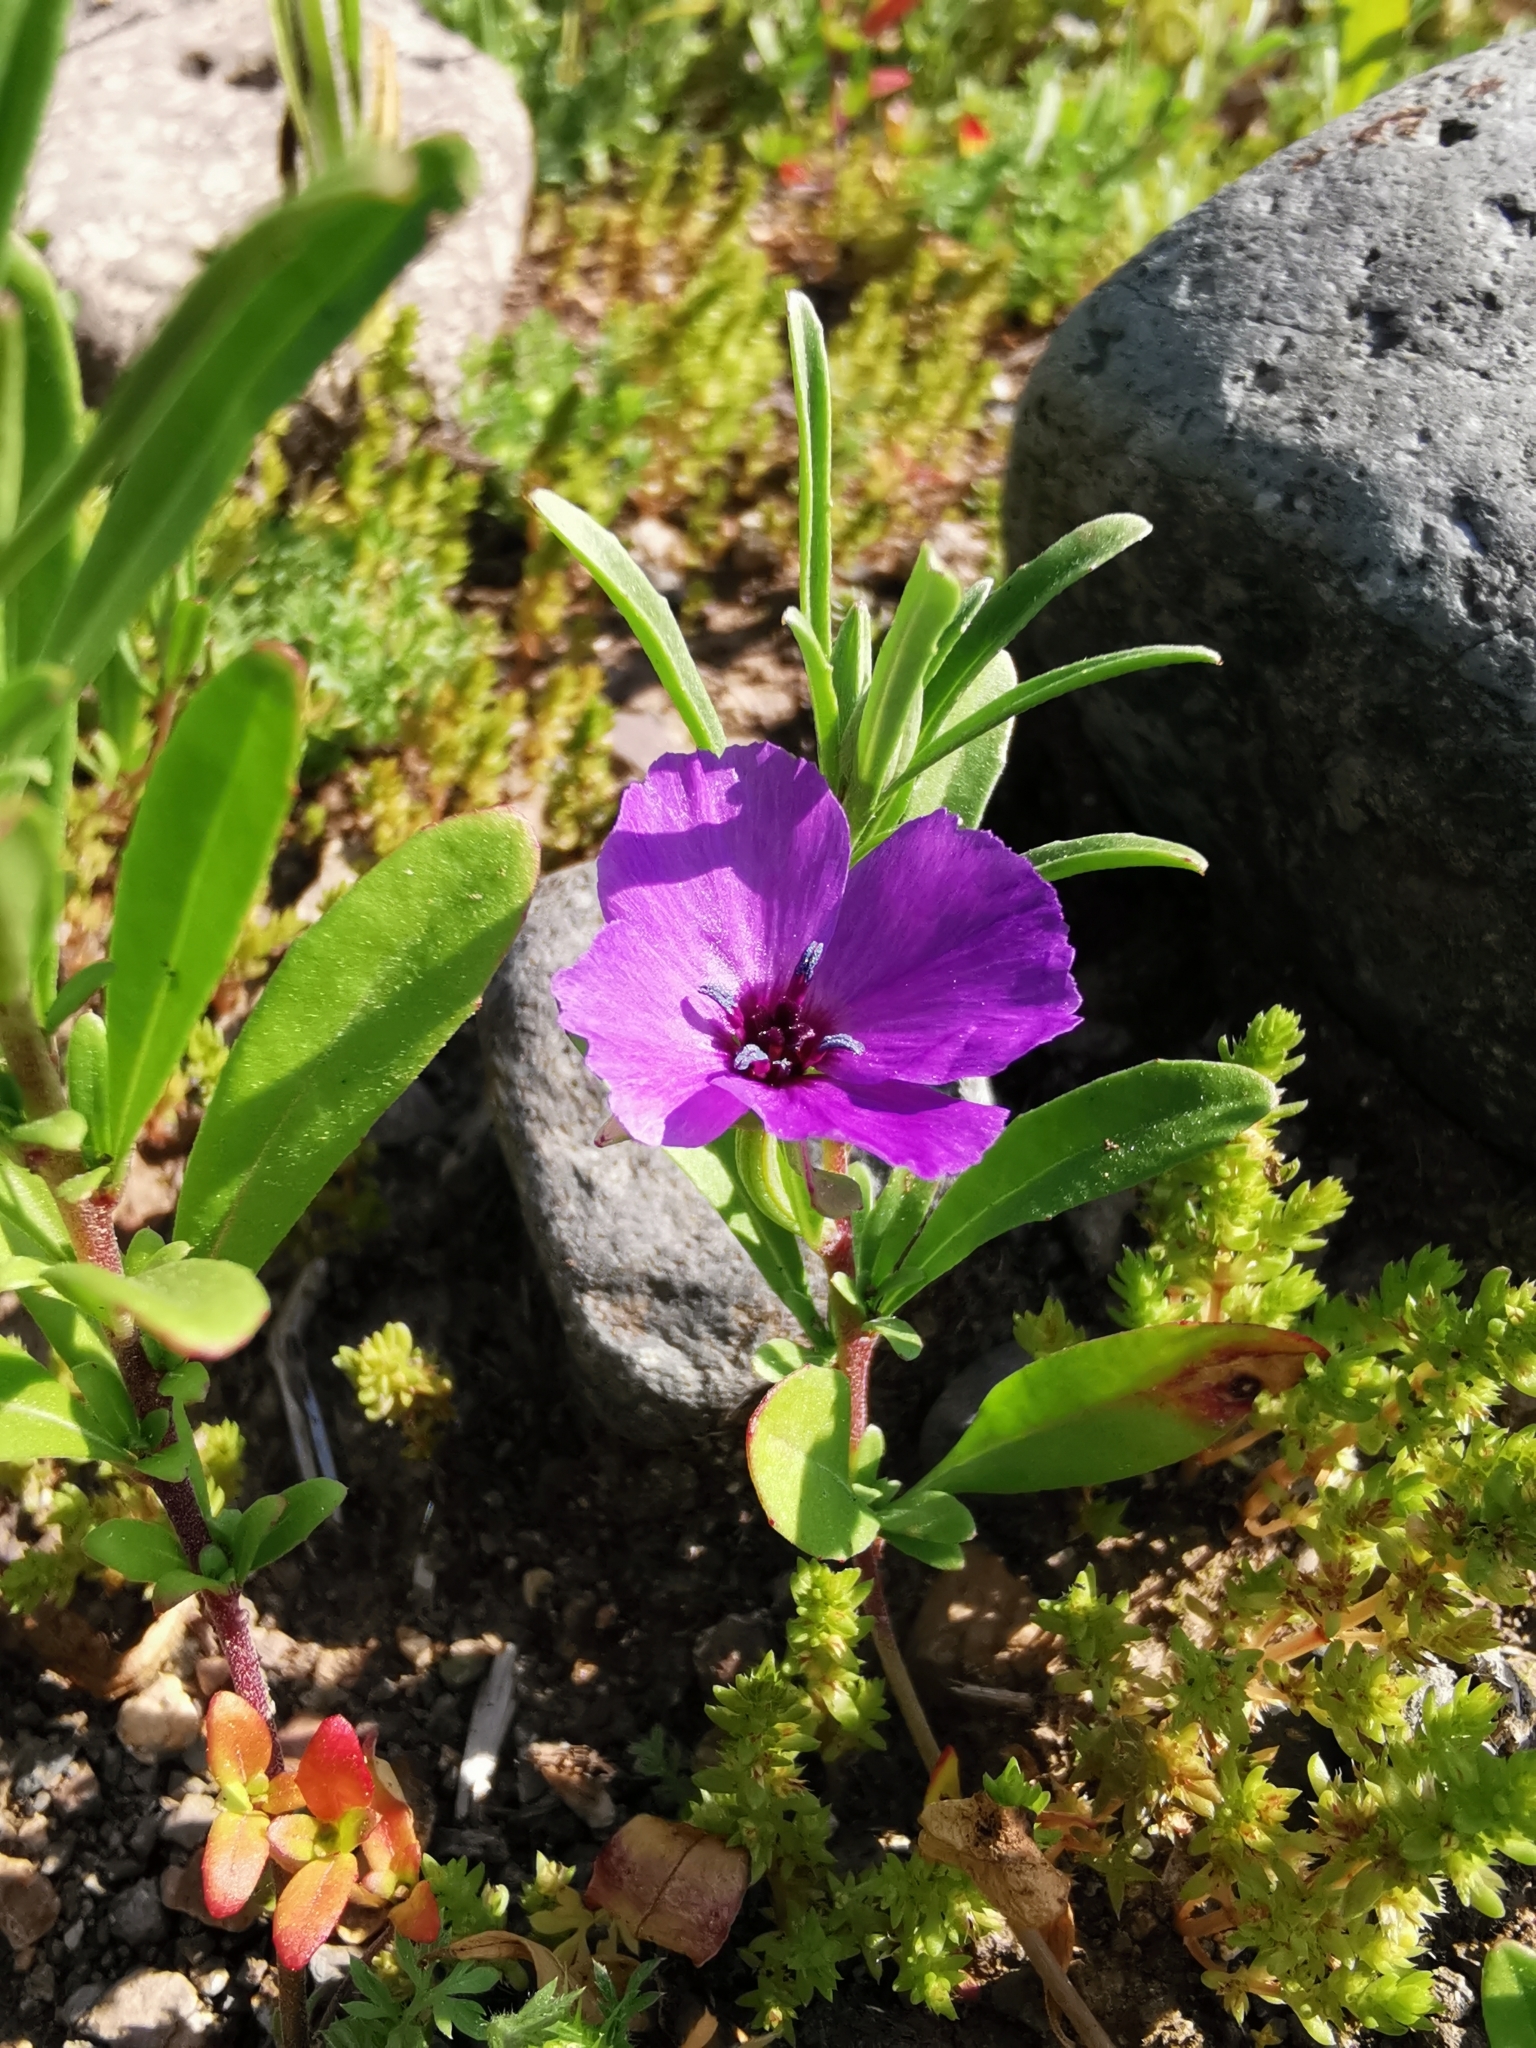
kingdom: Plantae
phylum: Tracheophyta
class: Magnoliopsida
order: Myrtales
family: Onagraceae
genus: Clarkia
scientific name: Clarkia tenella
